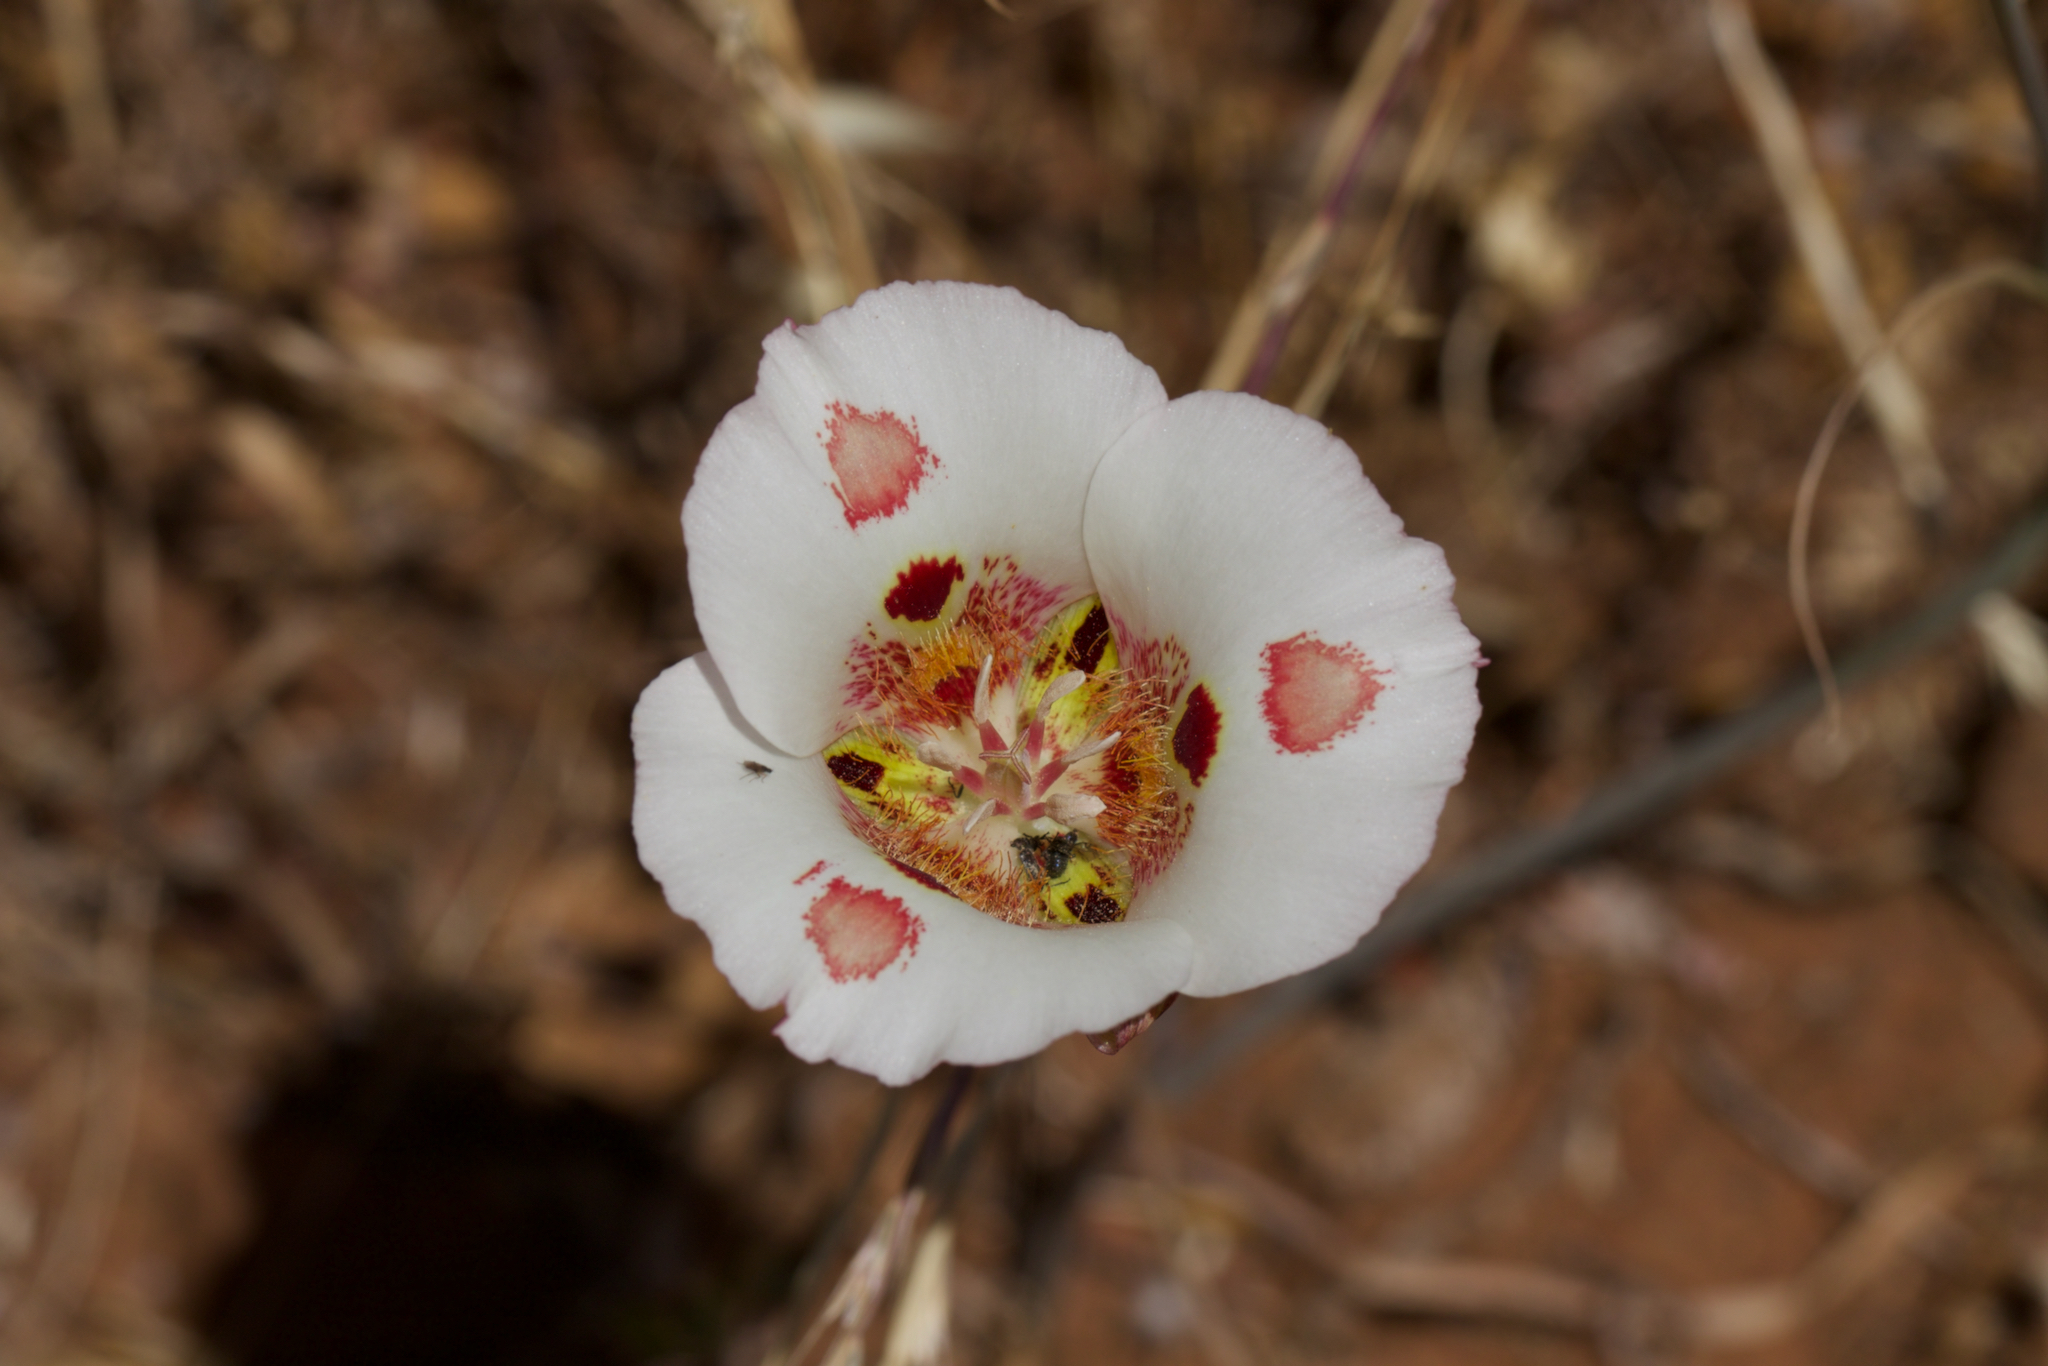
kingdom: Plantae
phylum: Tracheophyta
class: Liliopsida
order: Liliales
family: Liliaceae
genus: Calochortus
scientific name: Calochortus venustus
